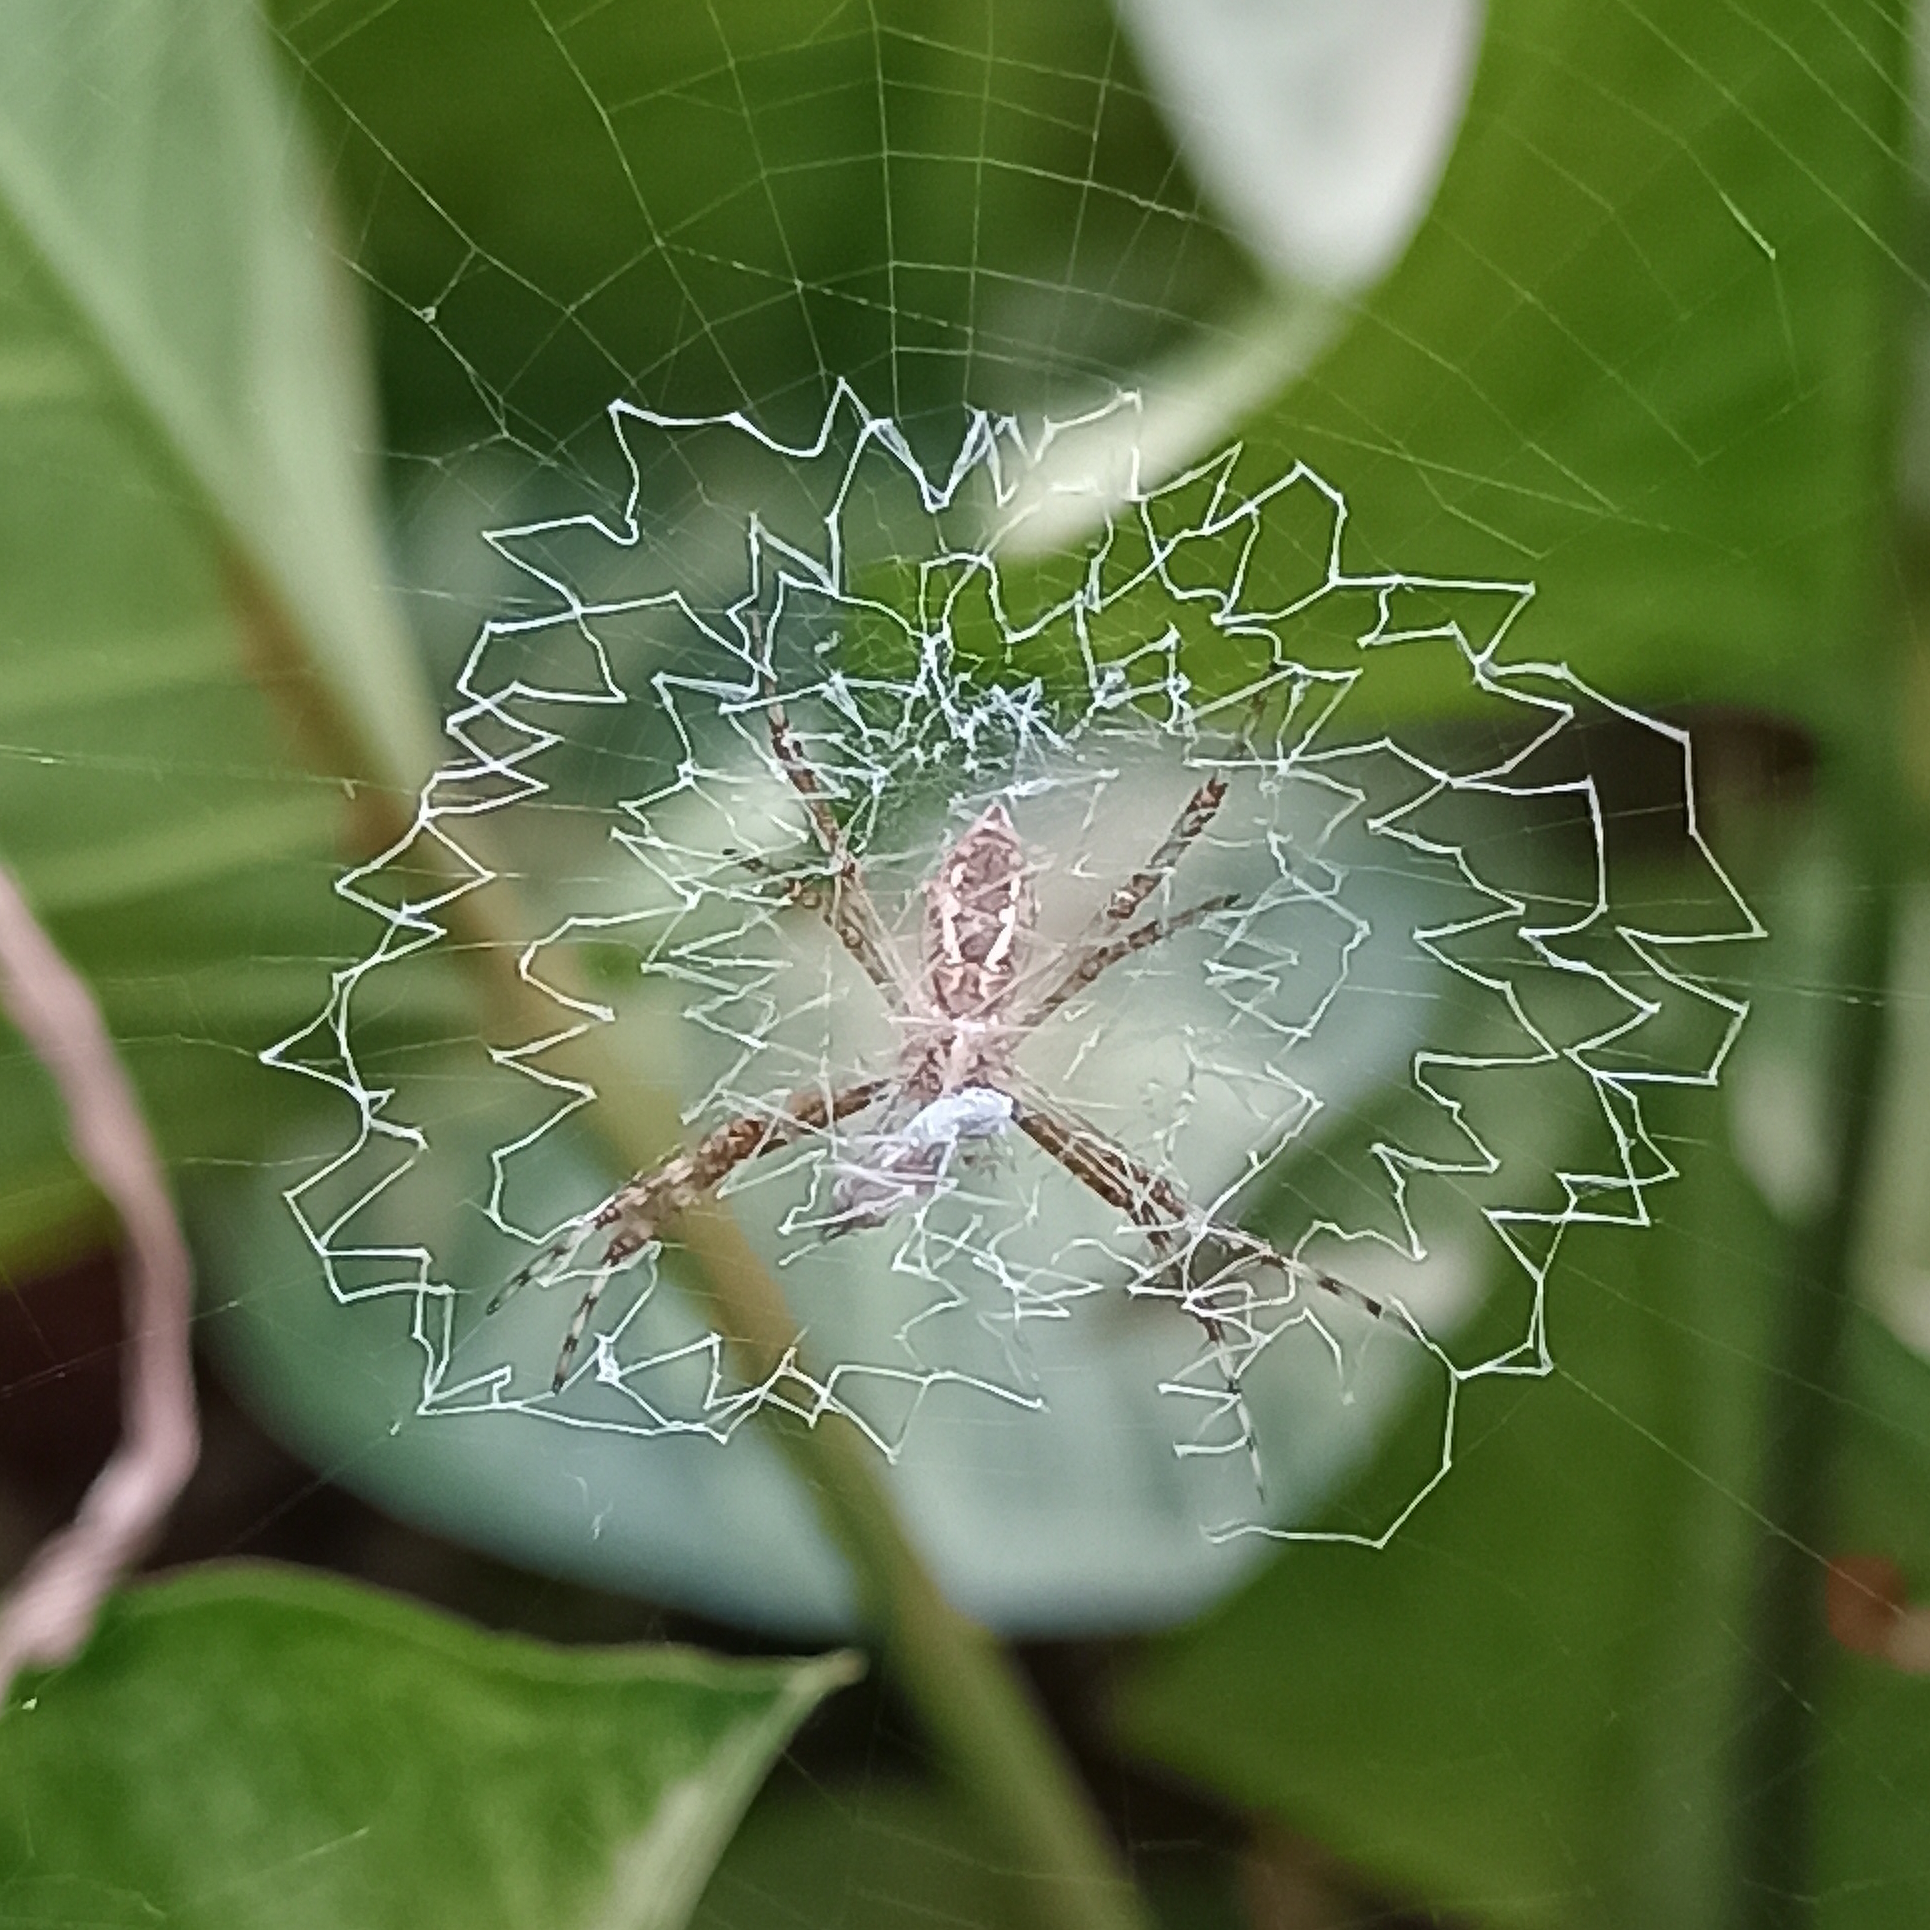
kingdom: Animalia
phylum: Arthropoda
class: Arachnida
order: Araneae
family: Araneidae
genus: Argiope
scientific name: Argiope argentata
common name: Orb weavers
